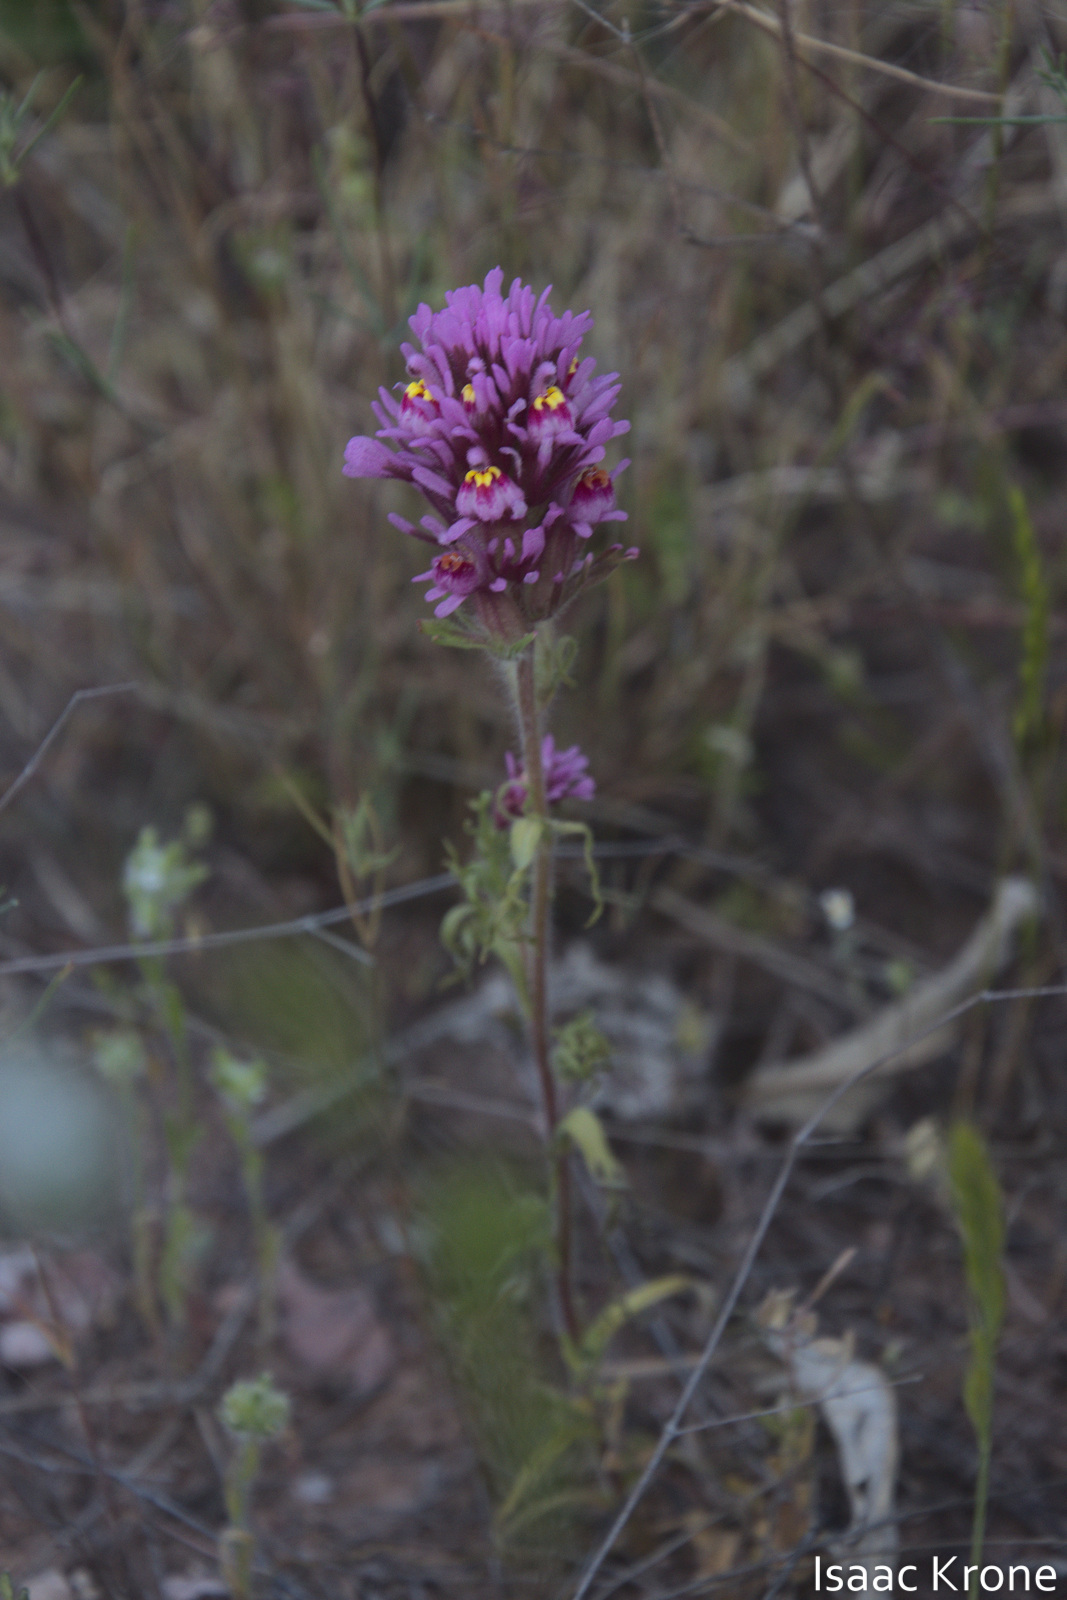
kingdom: Plantae
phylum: Tracheophyta
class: Magnoliopsida
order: Lamiales
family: Orobanchaceae
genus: Castilleja
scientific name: Castilleja exserta
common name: Purple owl-clover
